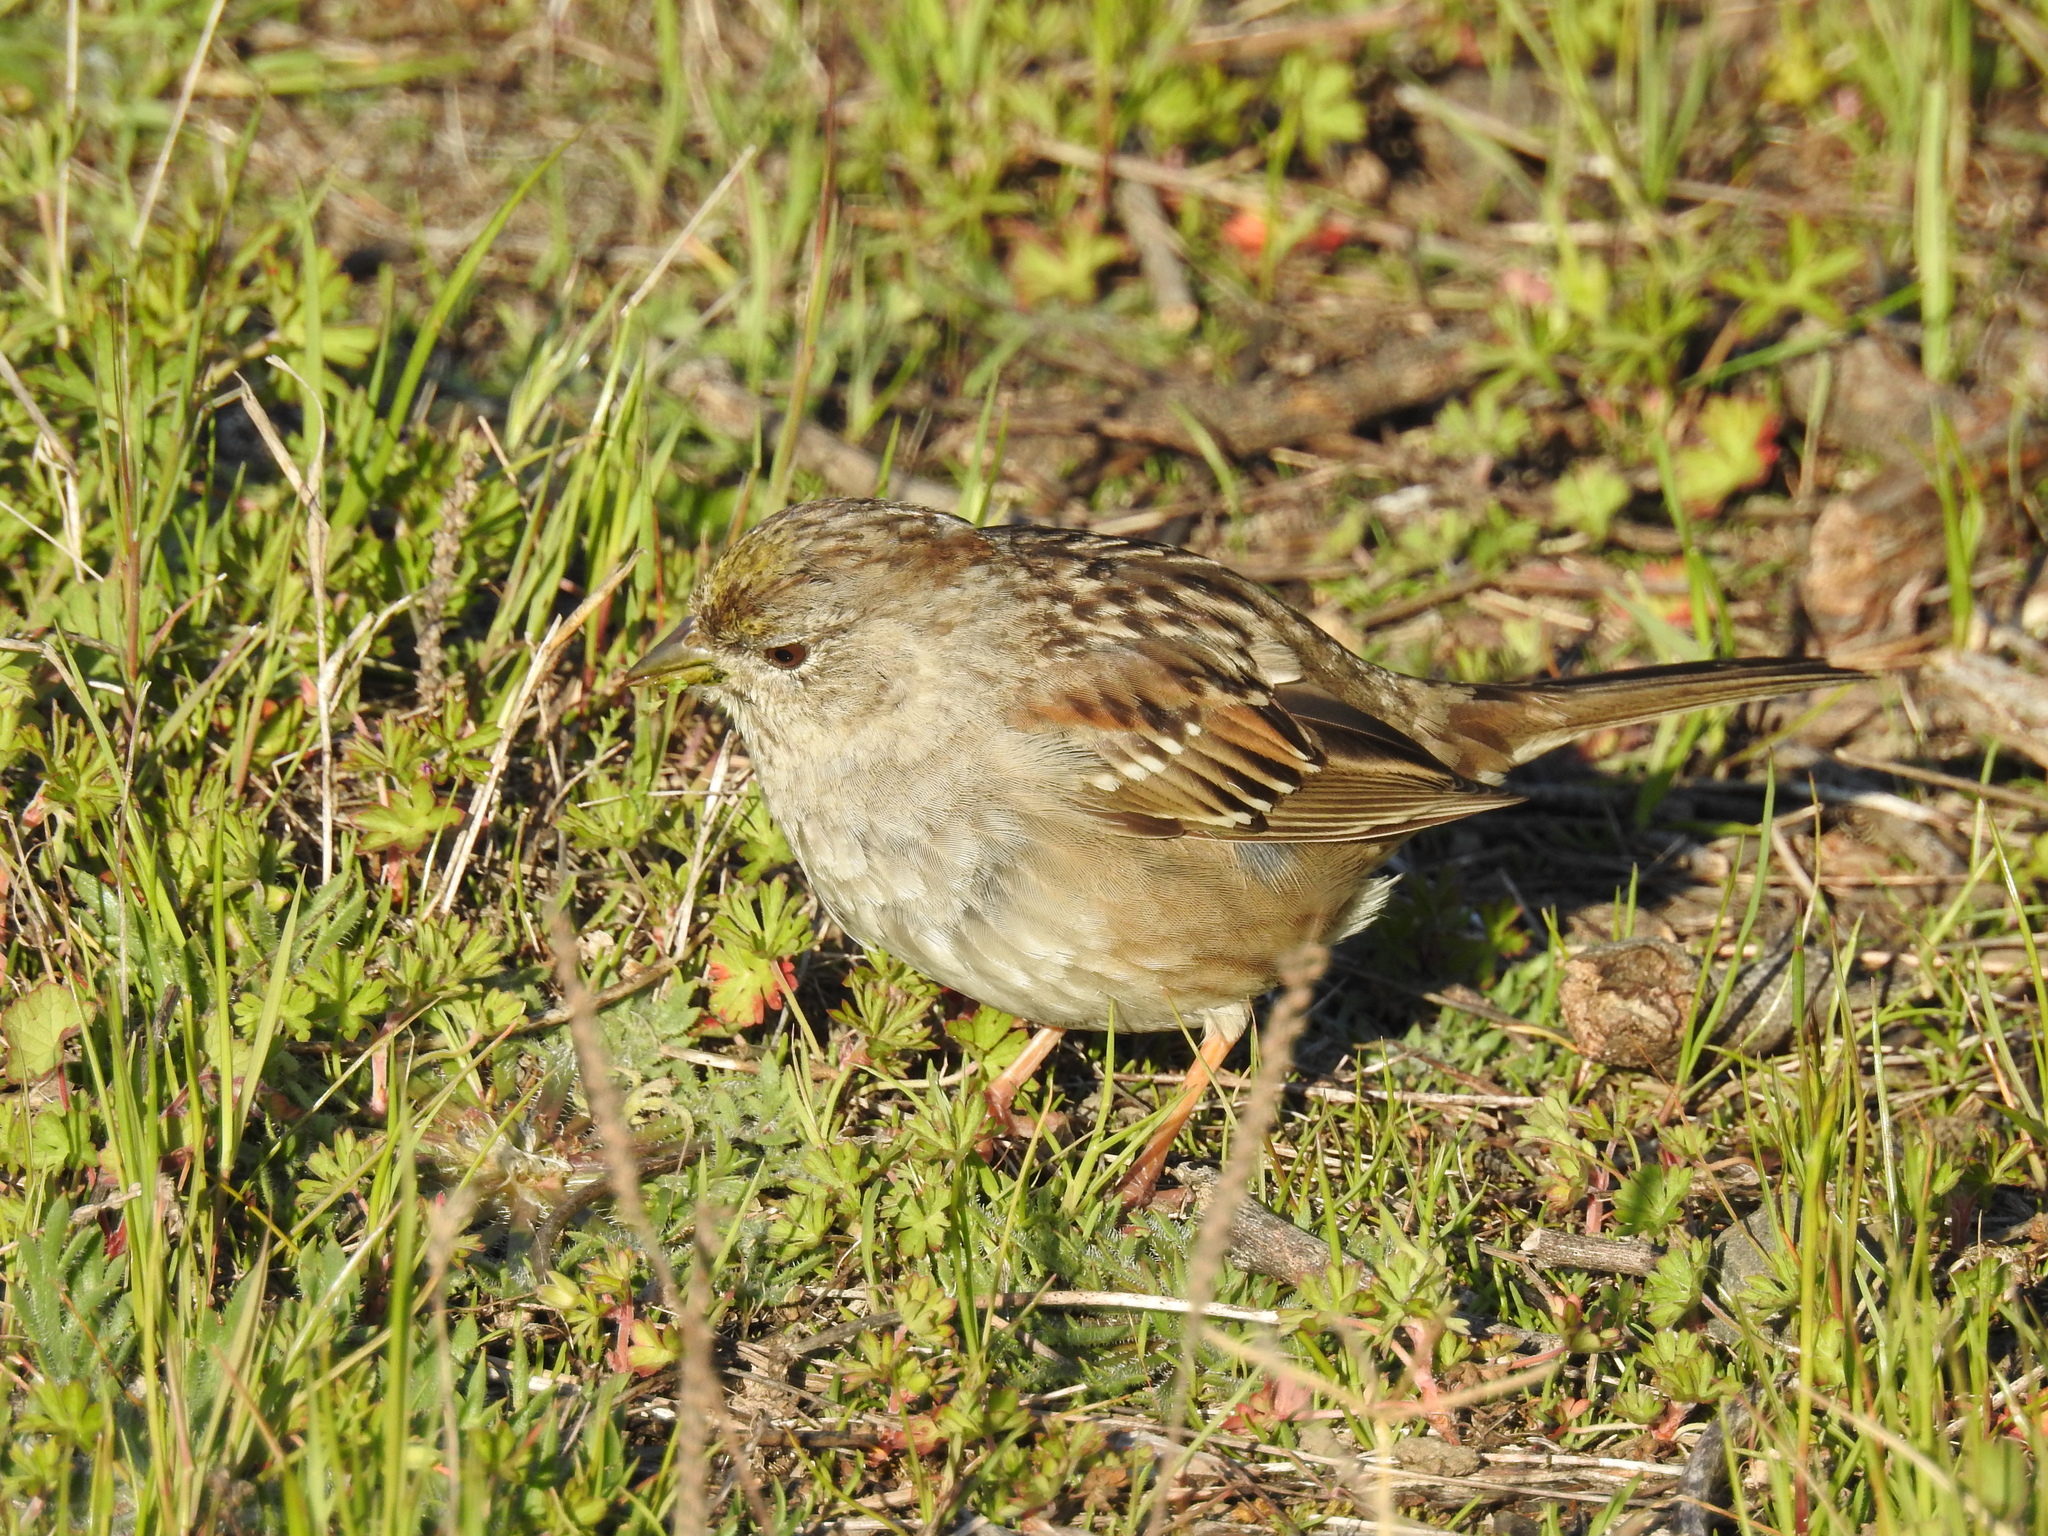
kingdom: Animalia
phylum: Chordata
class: Aves
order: Passeriformes
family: Passerellidae
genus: Zonotrichia
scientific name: Zonotrichia atricapilla
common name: Golden-crowned sparrow
